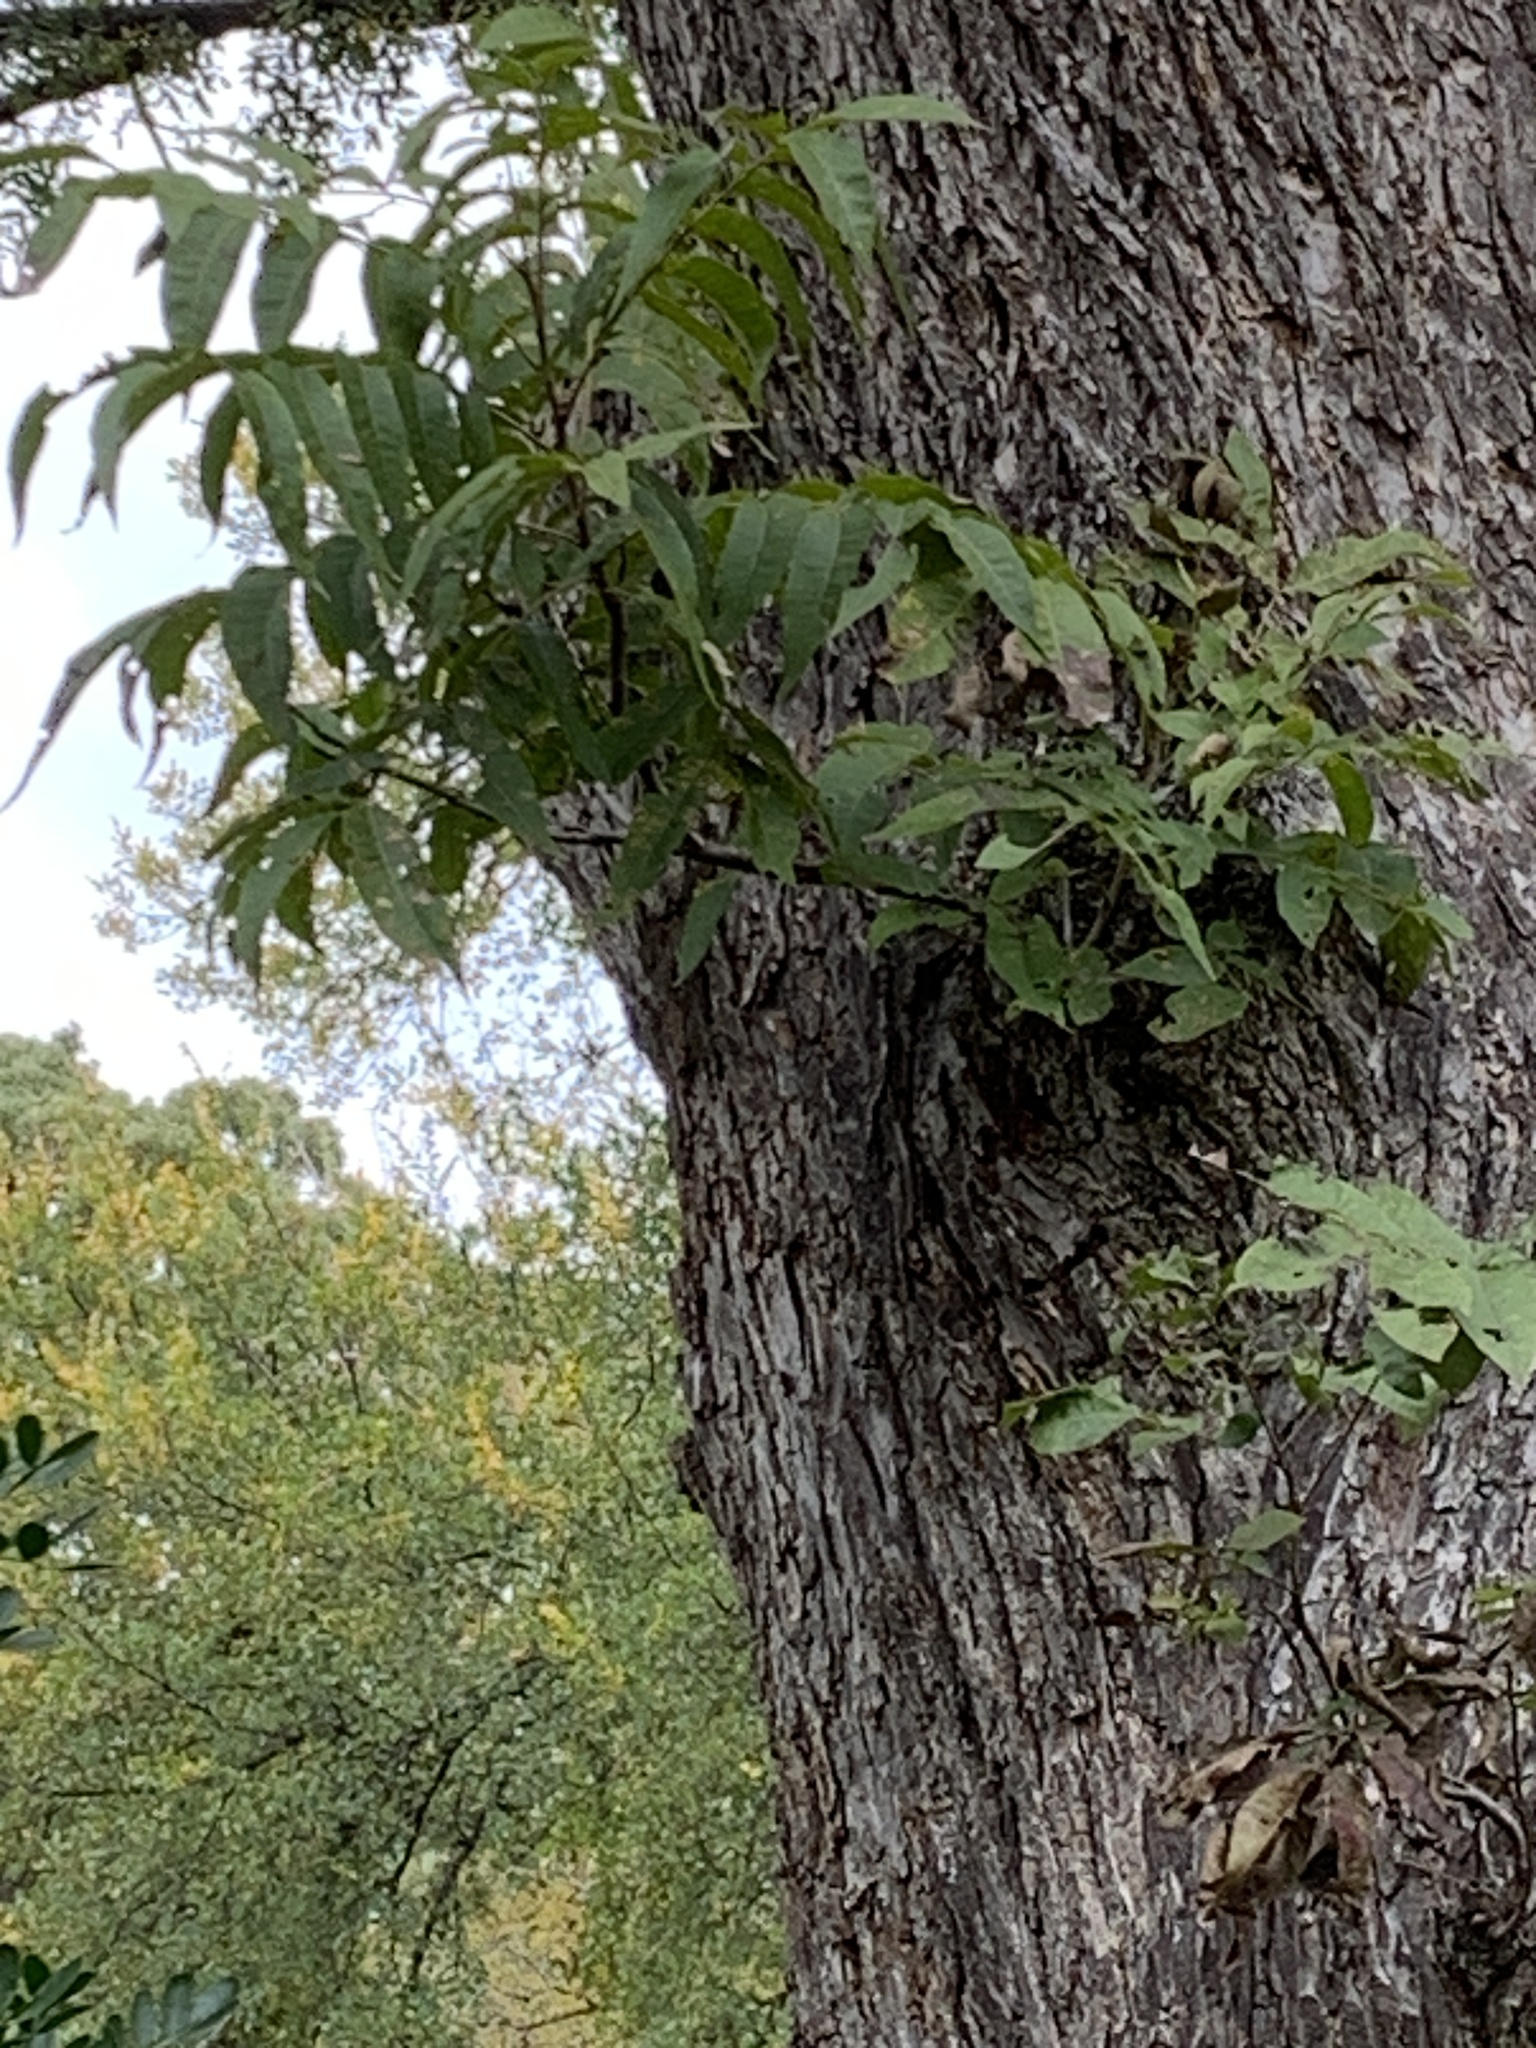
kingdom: Plantae
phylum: Tracheophyta
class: Magnoliopsida
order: Fagales
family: Juglandaceae
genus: Carya
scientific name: Carya illinoinensis
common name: Pecan
